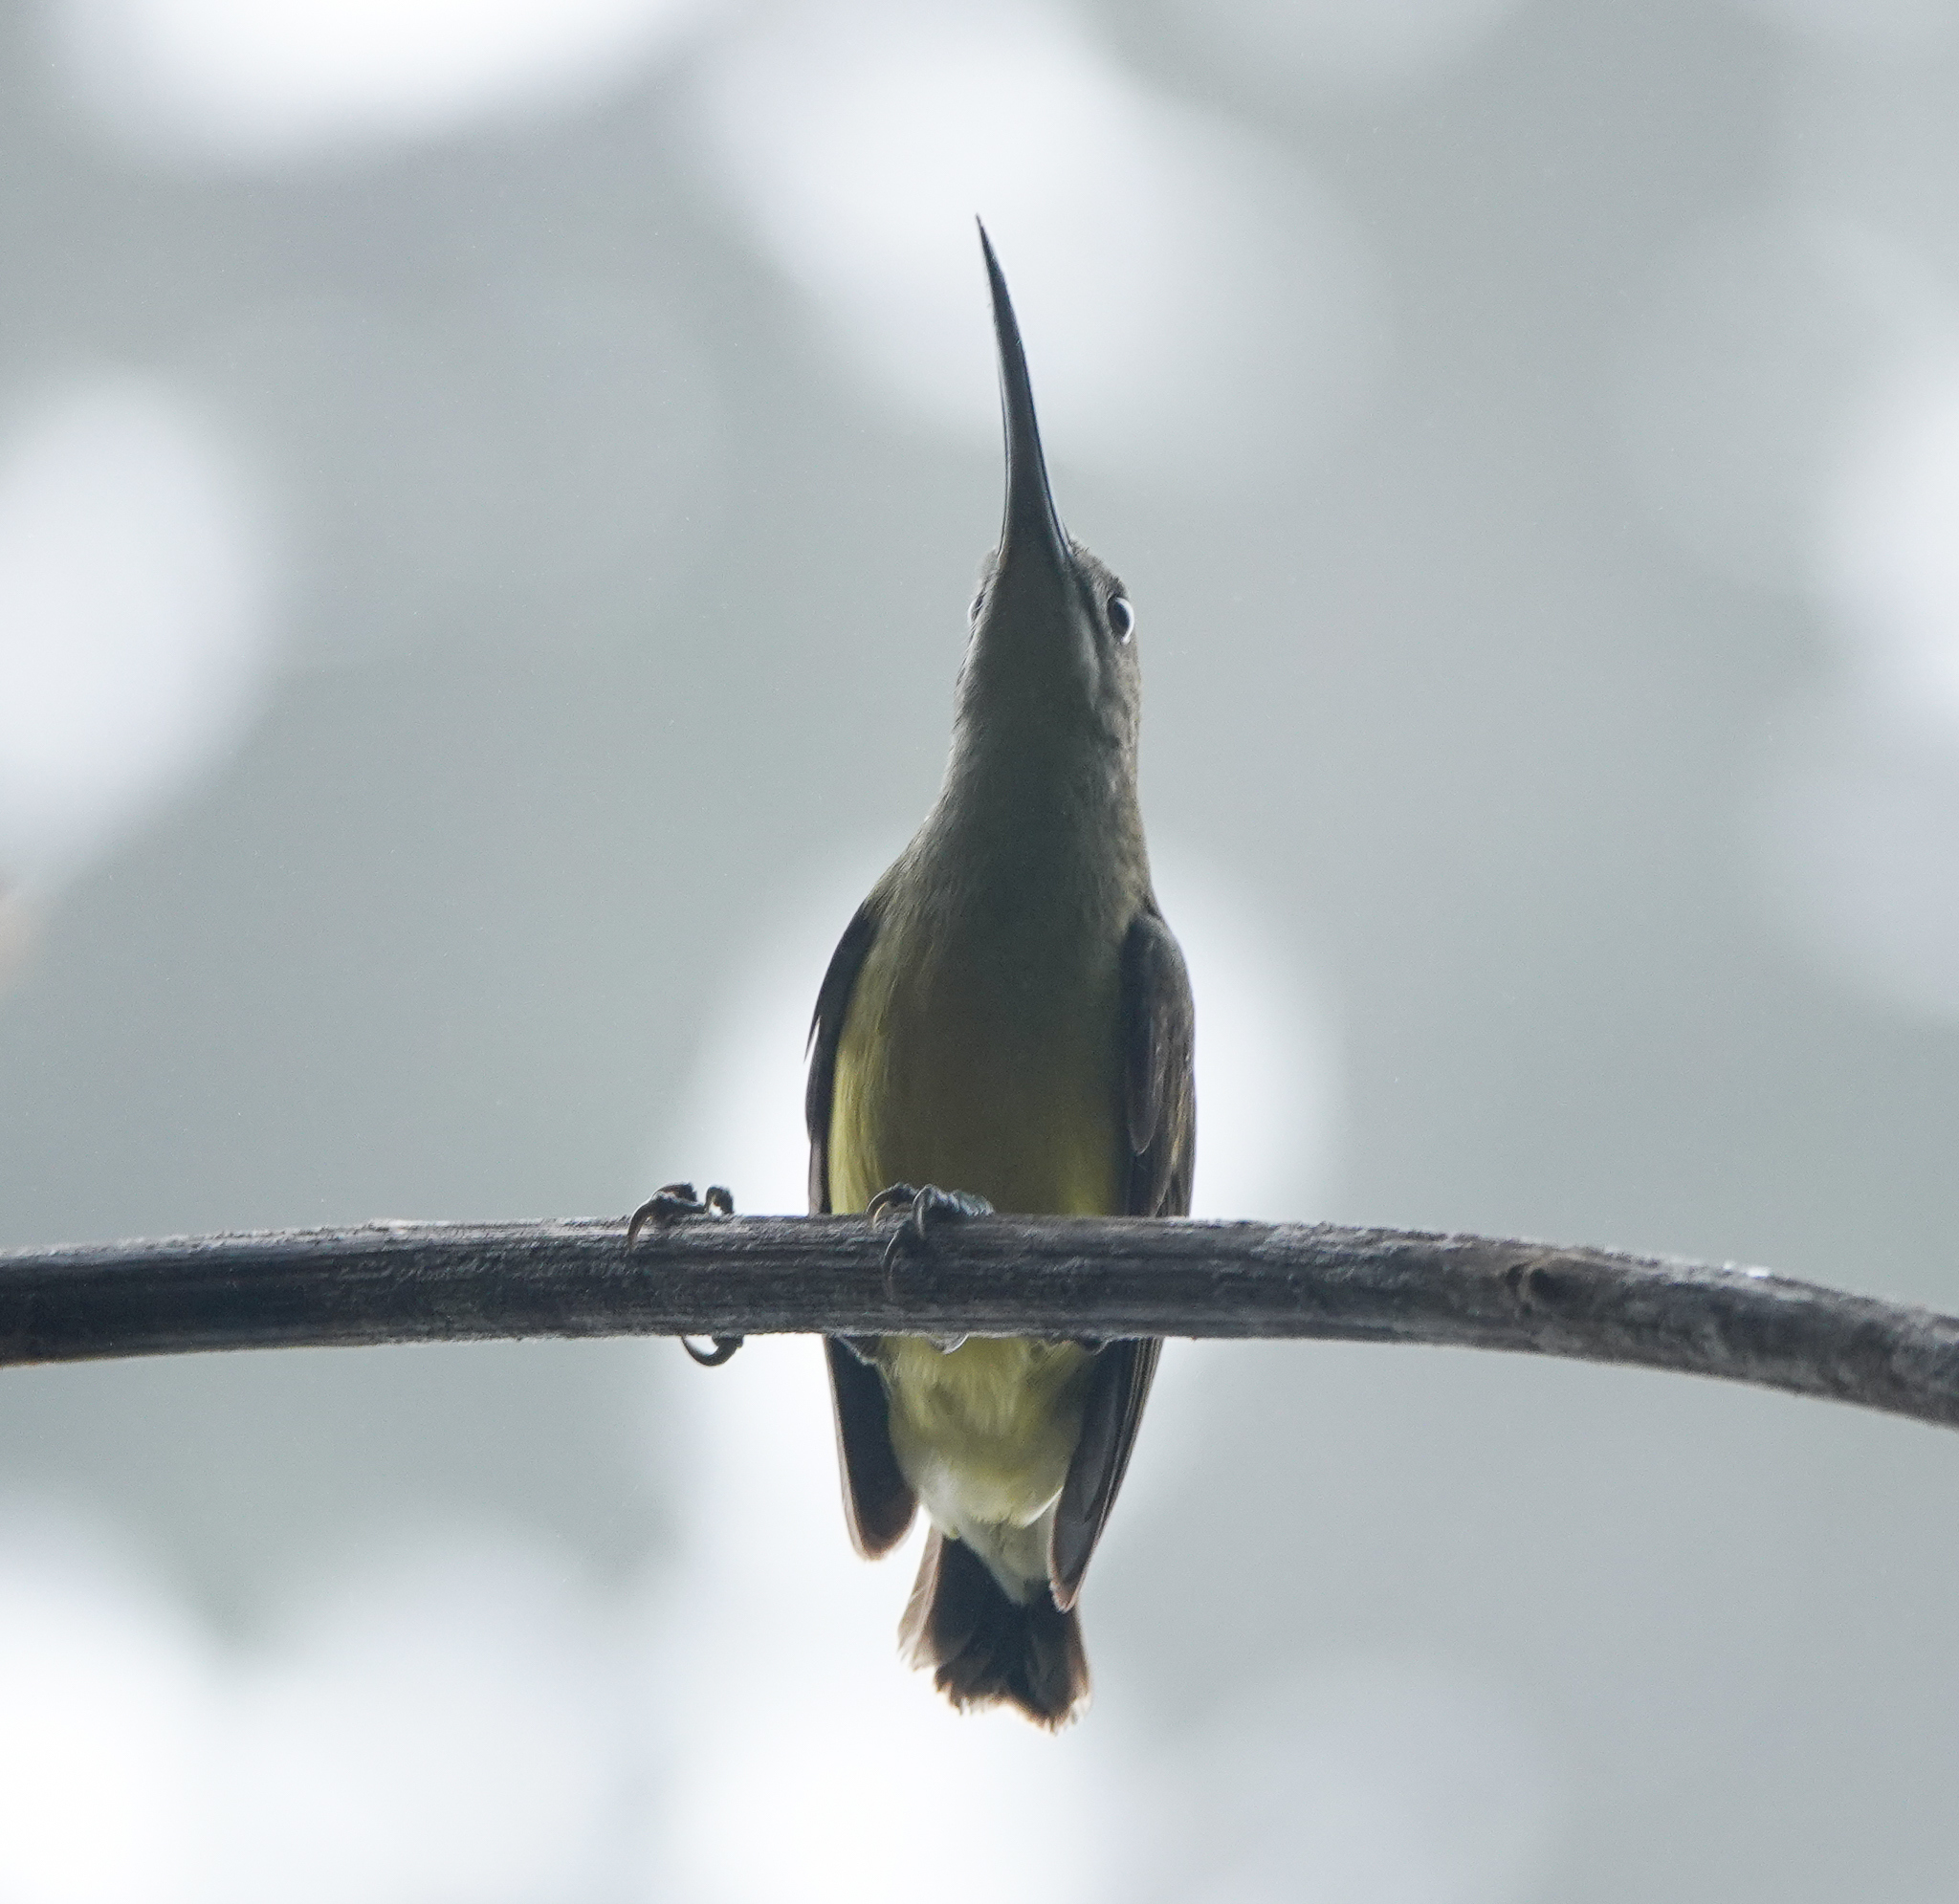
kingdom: Animalia
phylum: Chordata
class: Aves
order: Passeriformes
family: Nectariniidae
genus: Arachnothera
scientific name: Arachnothera longirostra
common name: Little spiderhunter
